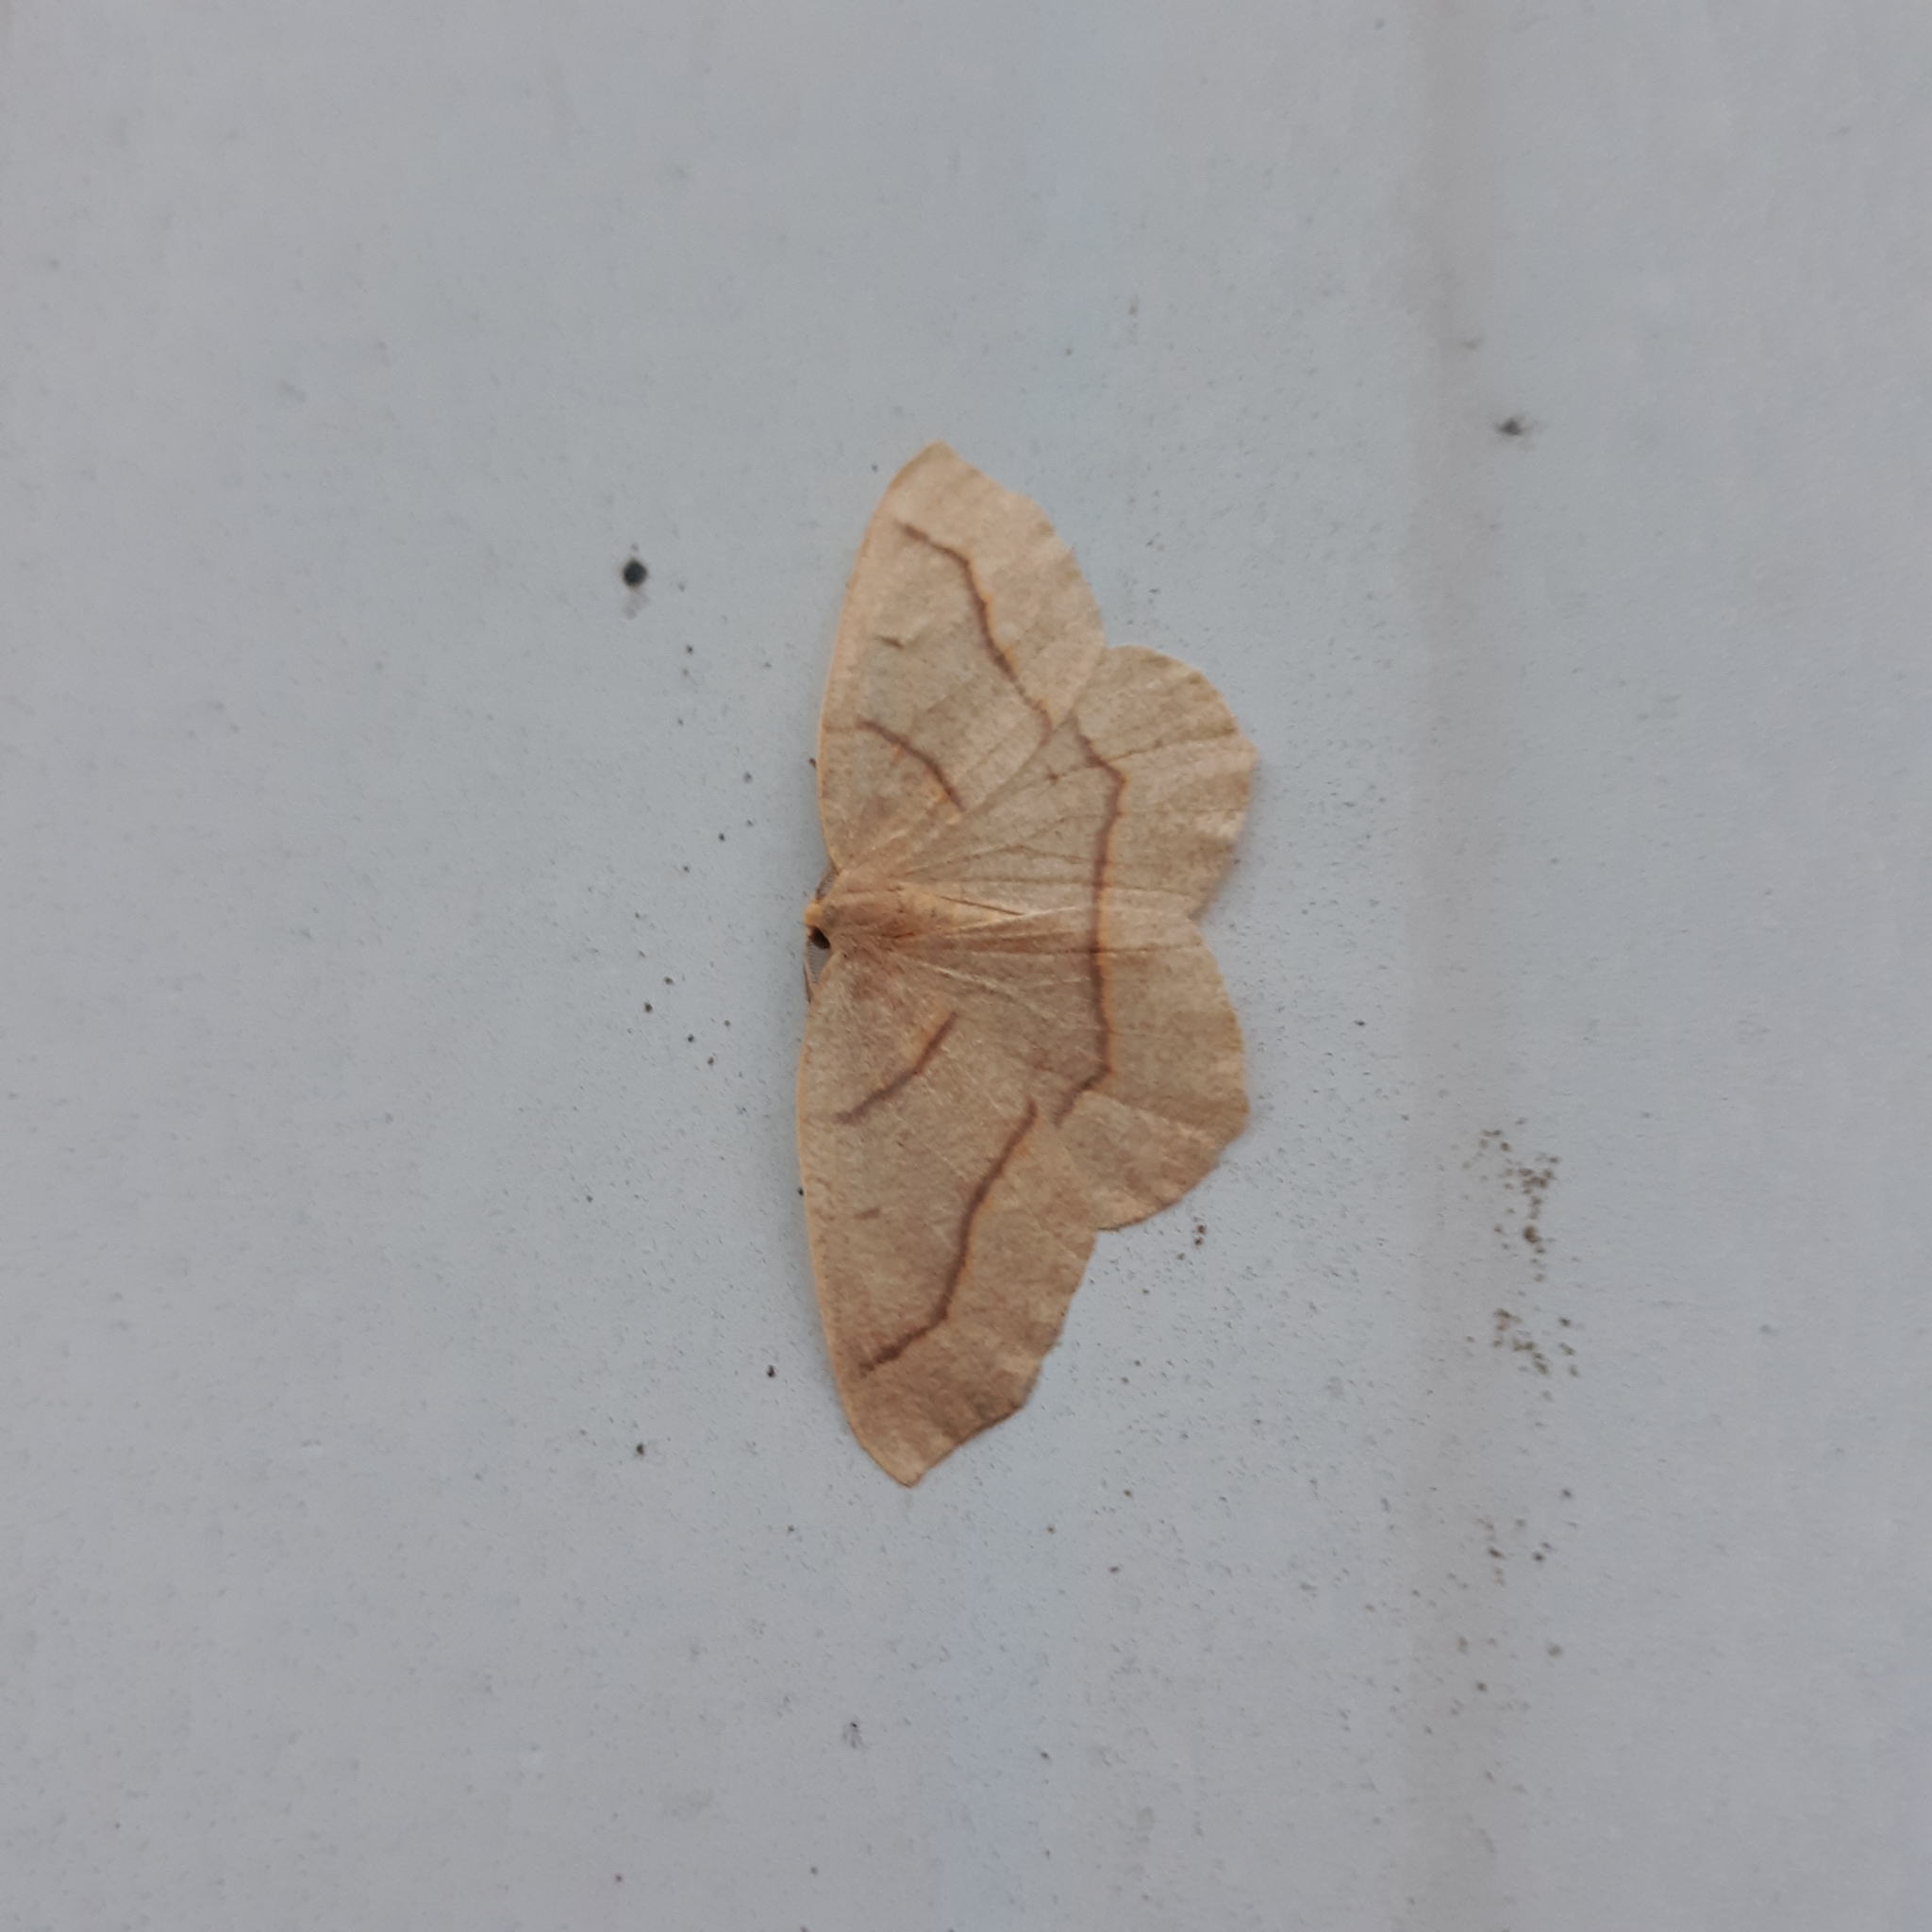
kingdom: Animalia
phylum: Arthropoda
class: Insecta
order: Lepidoptera
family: Geometridae
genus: Lambdina
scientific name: Lambdina fiscellaria
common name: Hemlock looper
